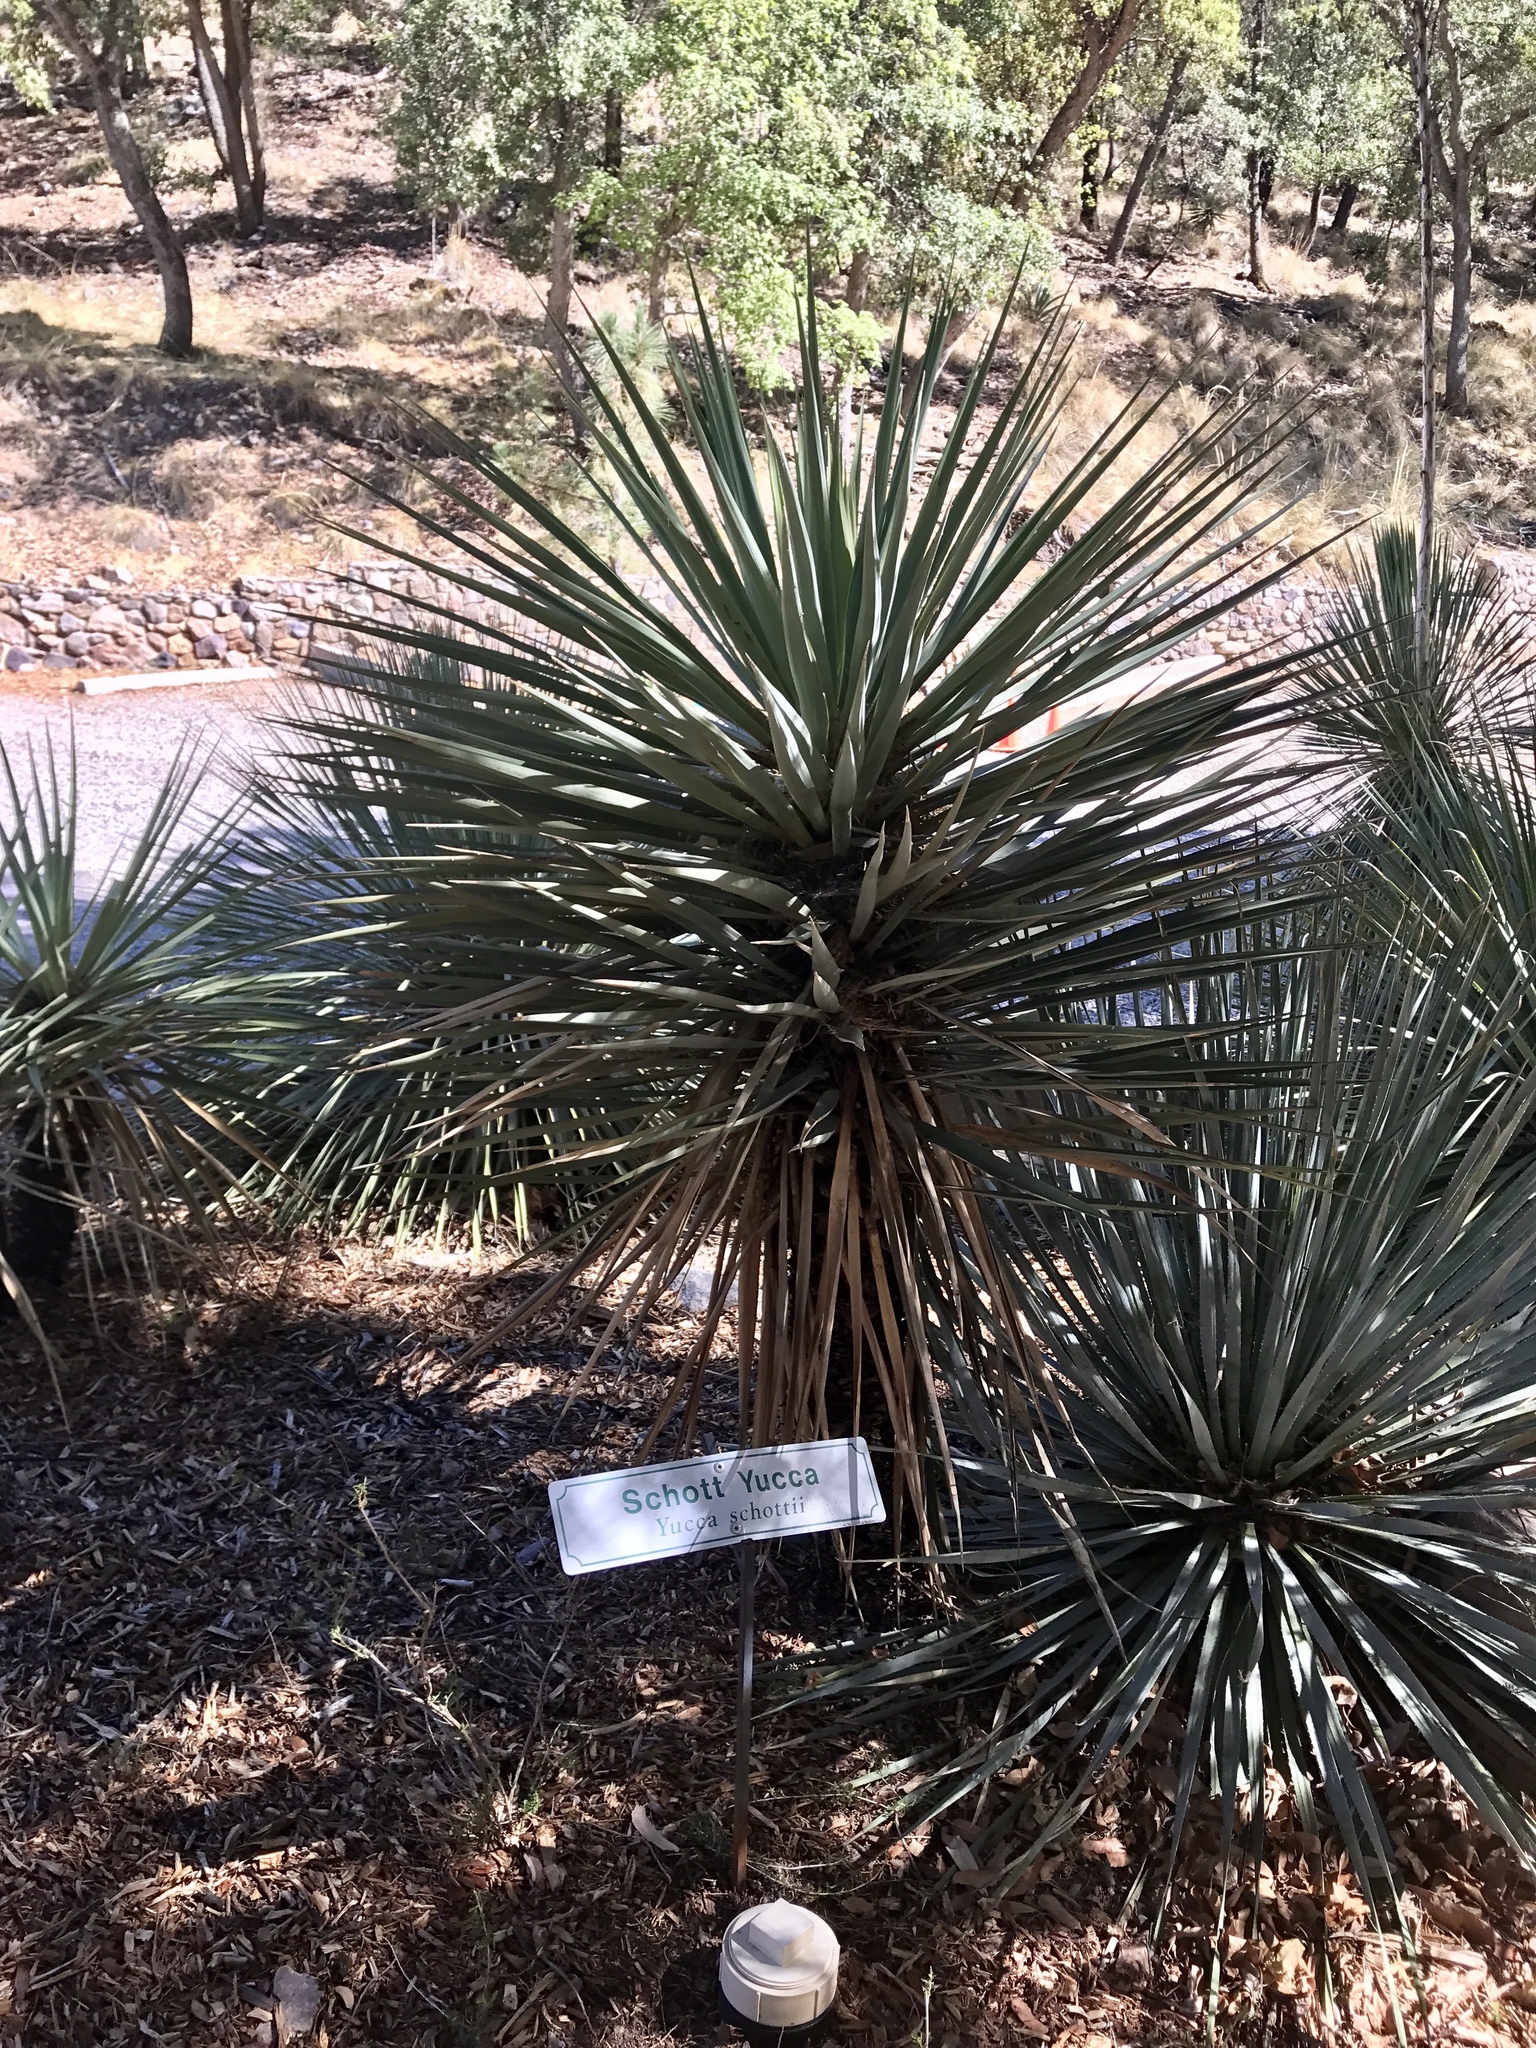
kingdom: Plantae
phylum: Tracheophyta
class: Liliopsida
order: Asparagales
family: Asparagaceae
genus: Yucca
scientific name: Yucca schottii
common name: Hoary yucca
